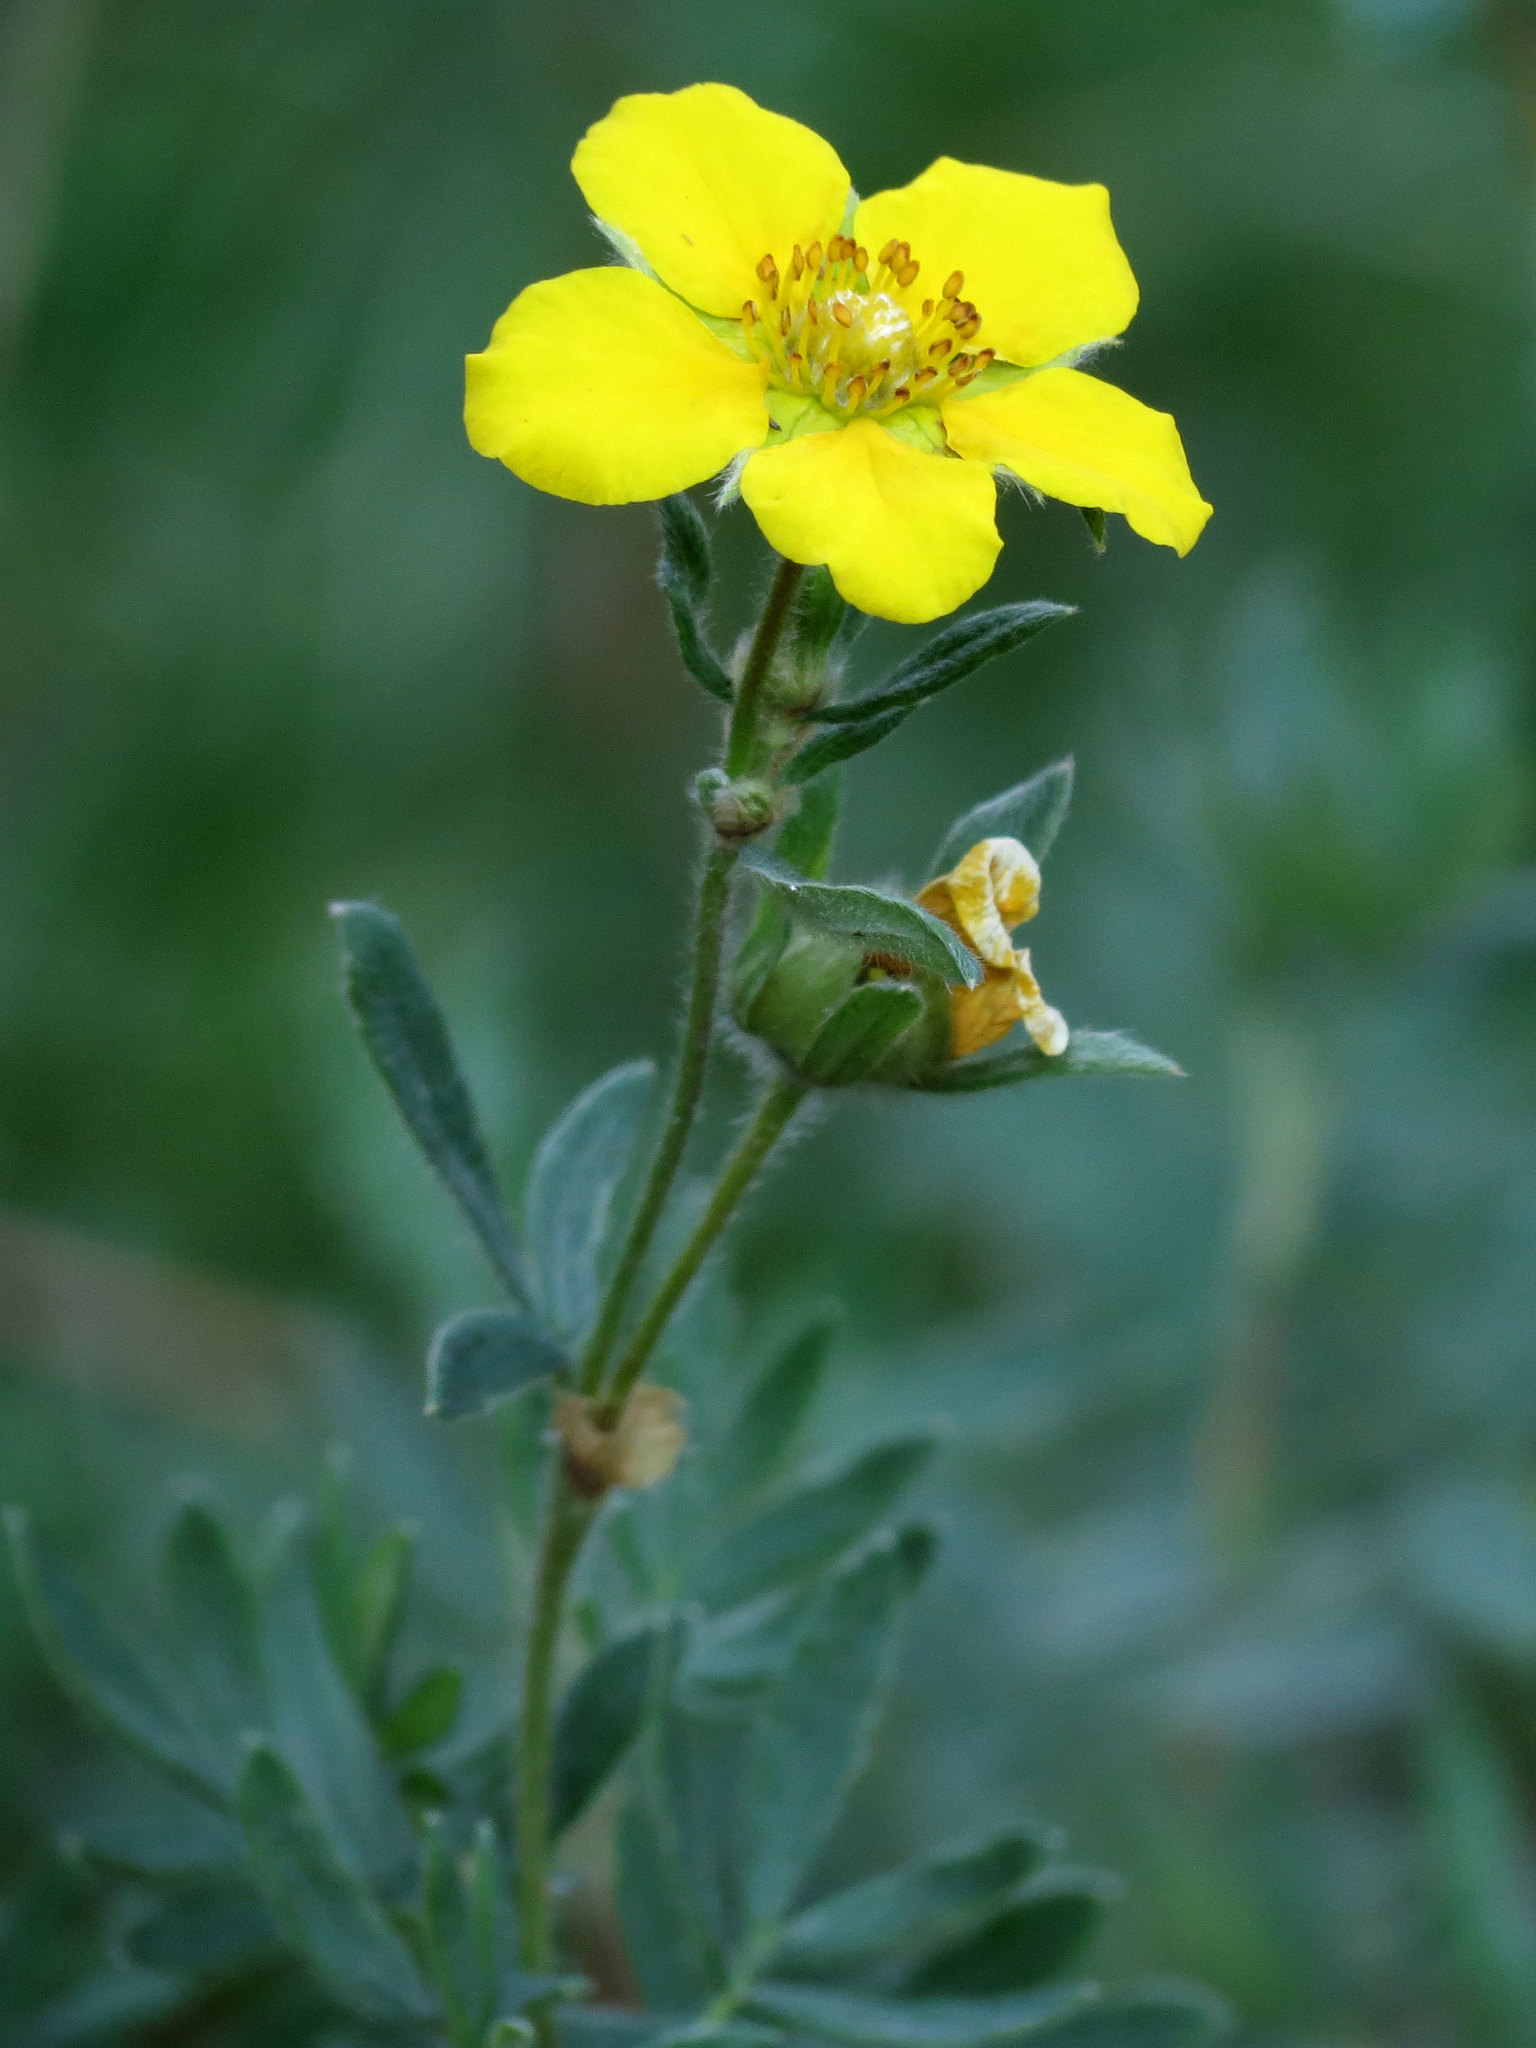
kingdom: Plantae
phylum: Tracheophyta
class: Magnoliopsida
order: Rosales
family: Rosaceae
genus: Dasiphora
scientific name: Dasiphora fruticosa
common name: Shrubby cinquefoil
